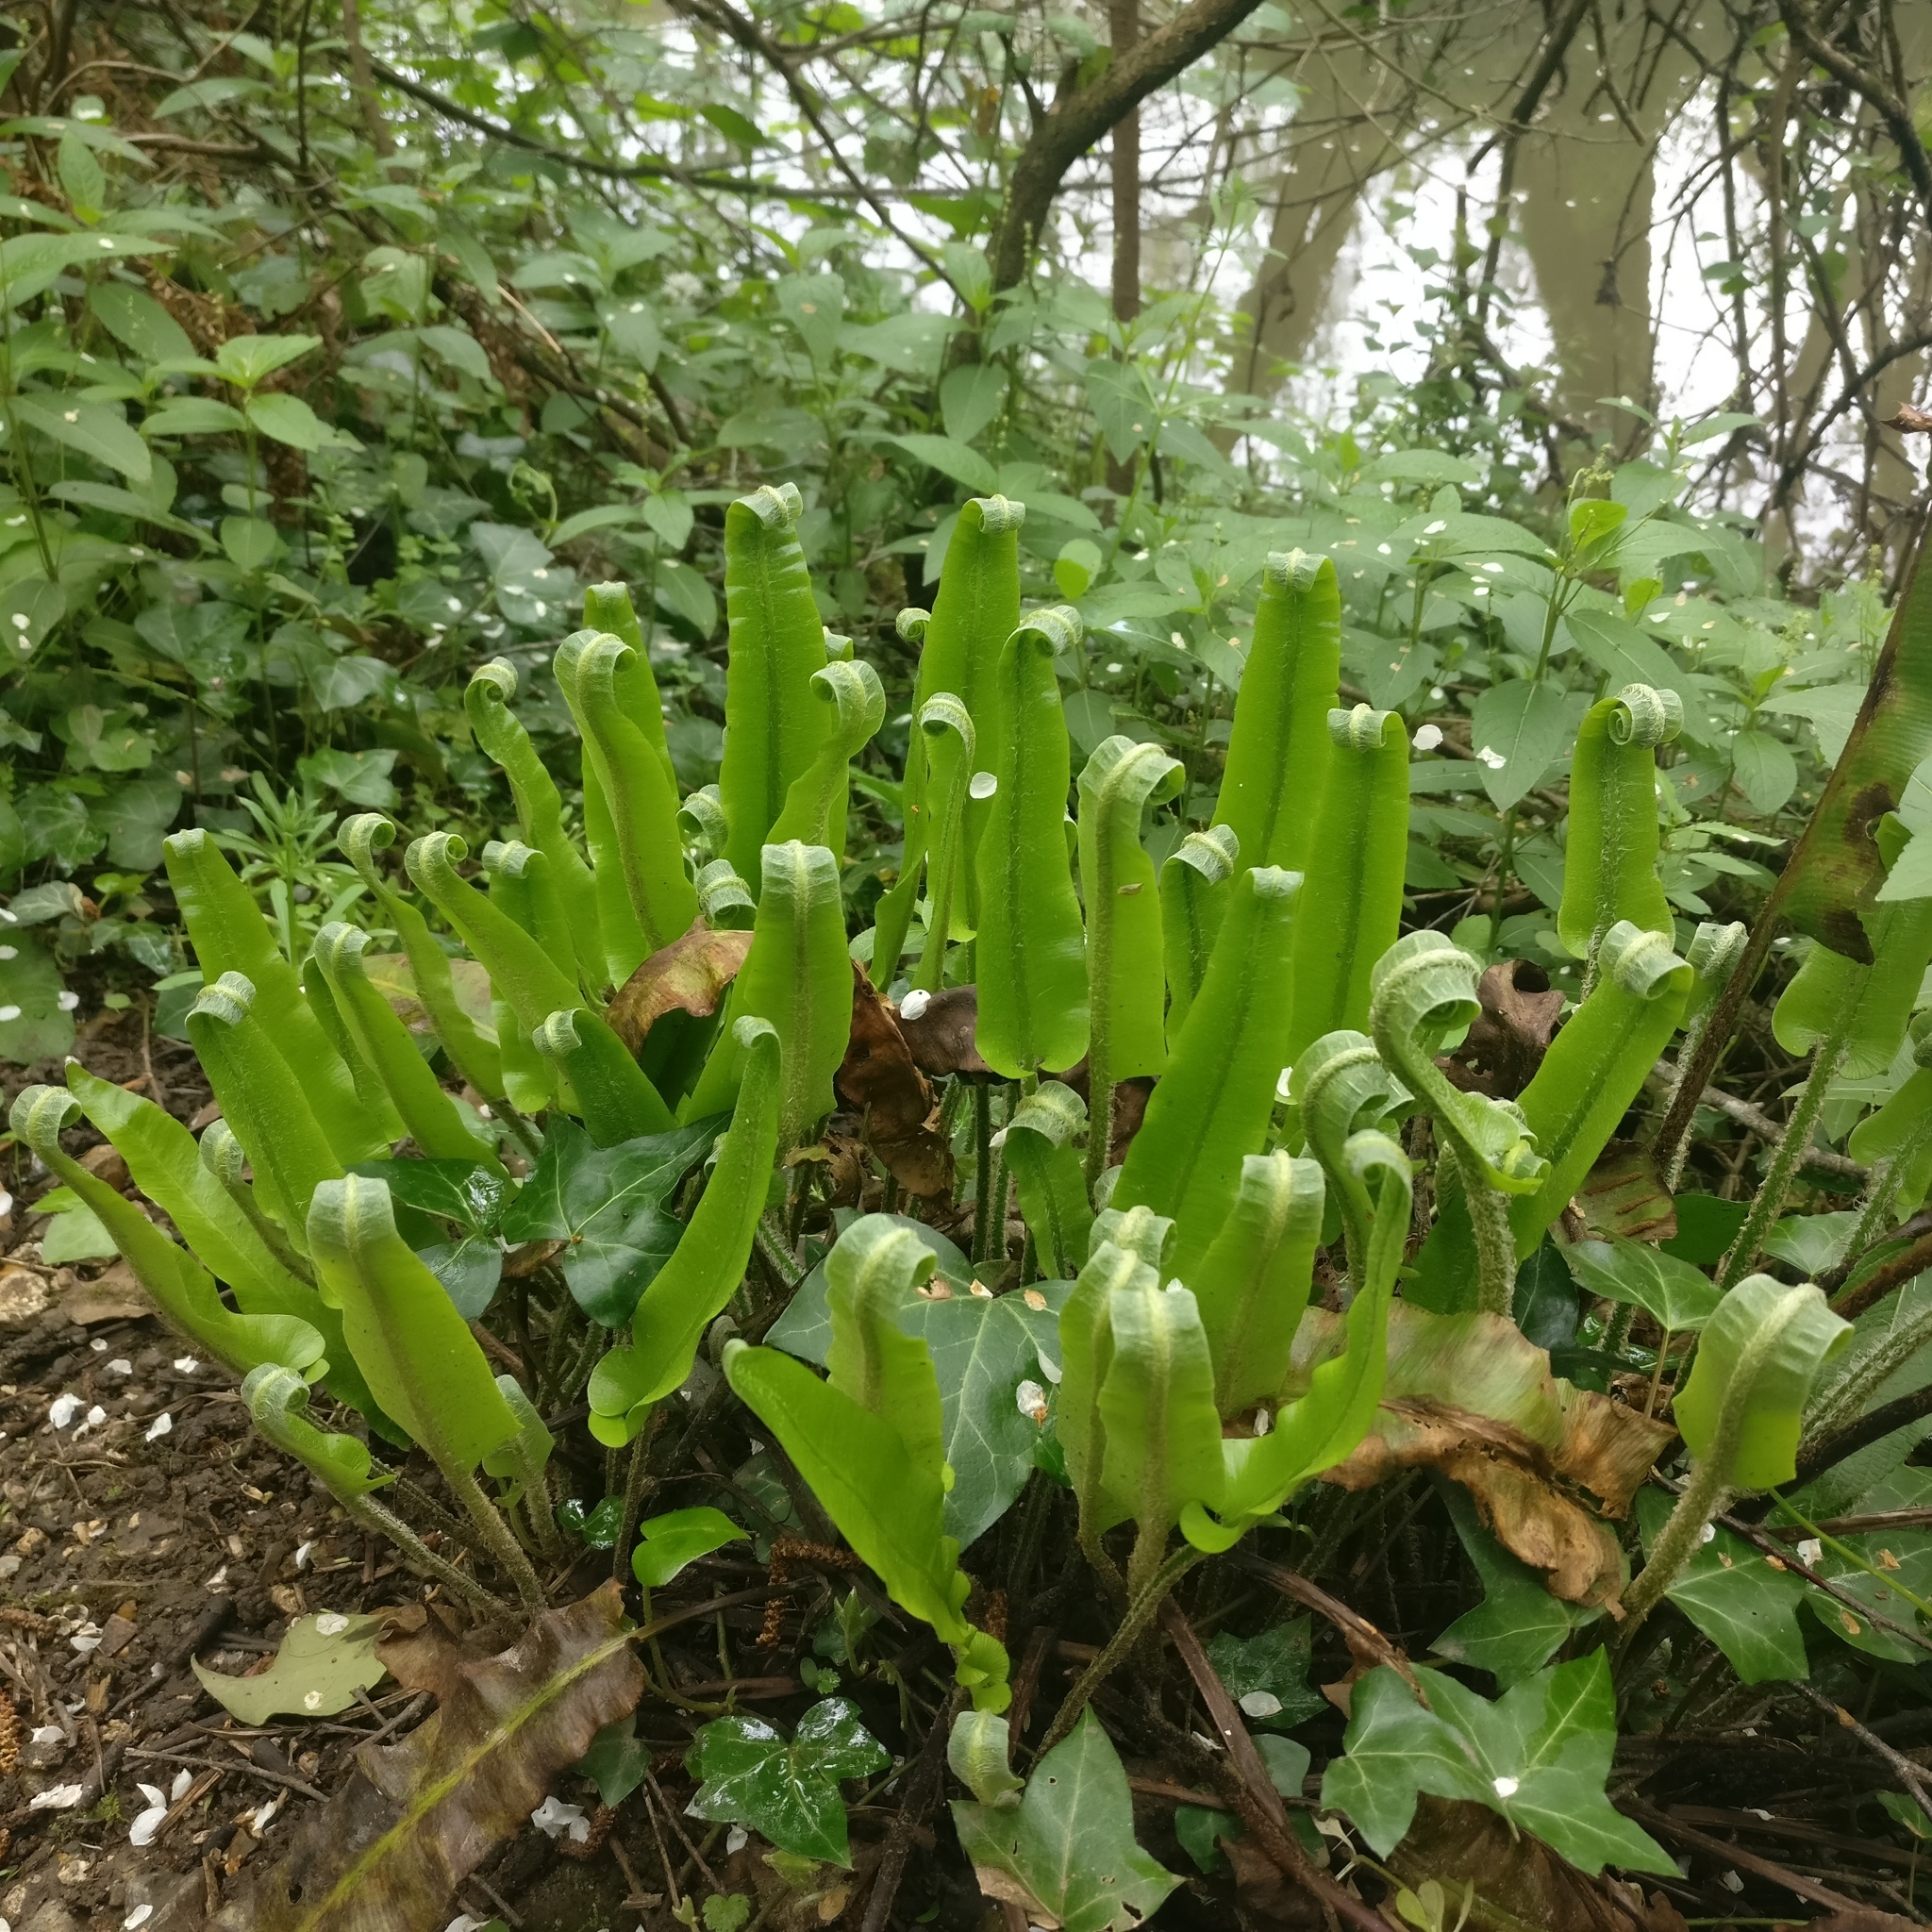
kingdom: Plantae
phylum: Tracheophyta
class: Polypodiopsida
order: Polypodiales
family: Aspleniaceae
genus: Asplenium
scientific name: Asplenium scolopendrium
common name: Hart's-tongue fern
